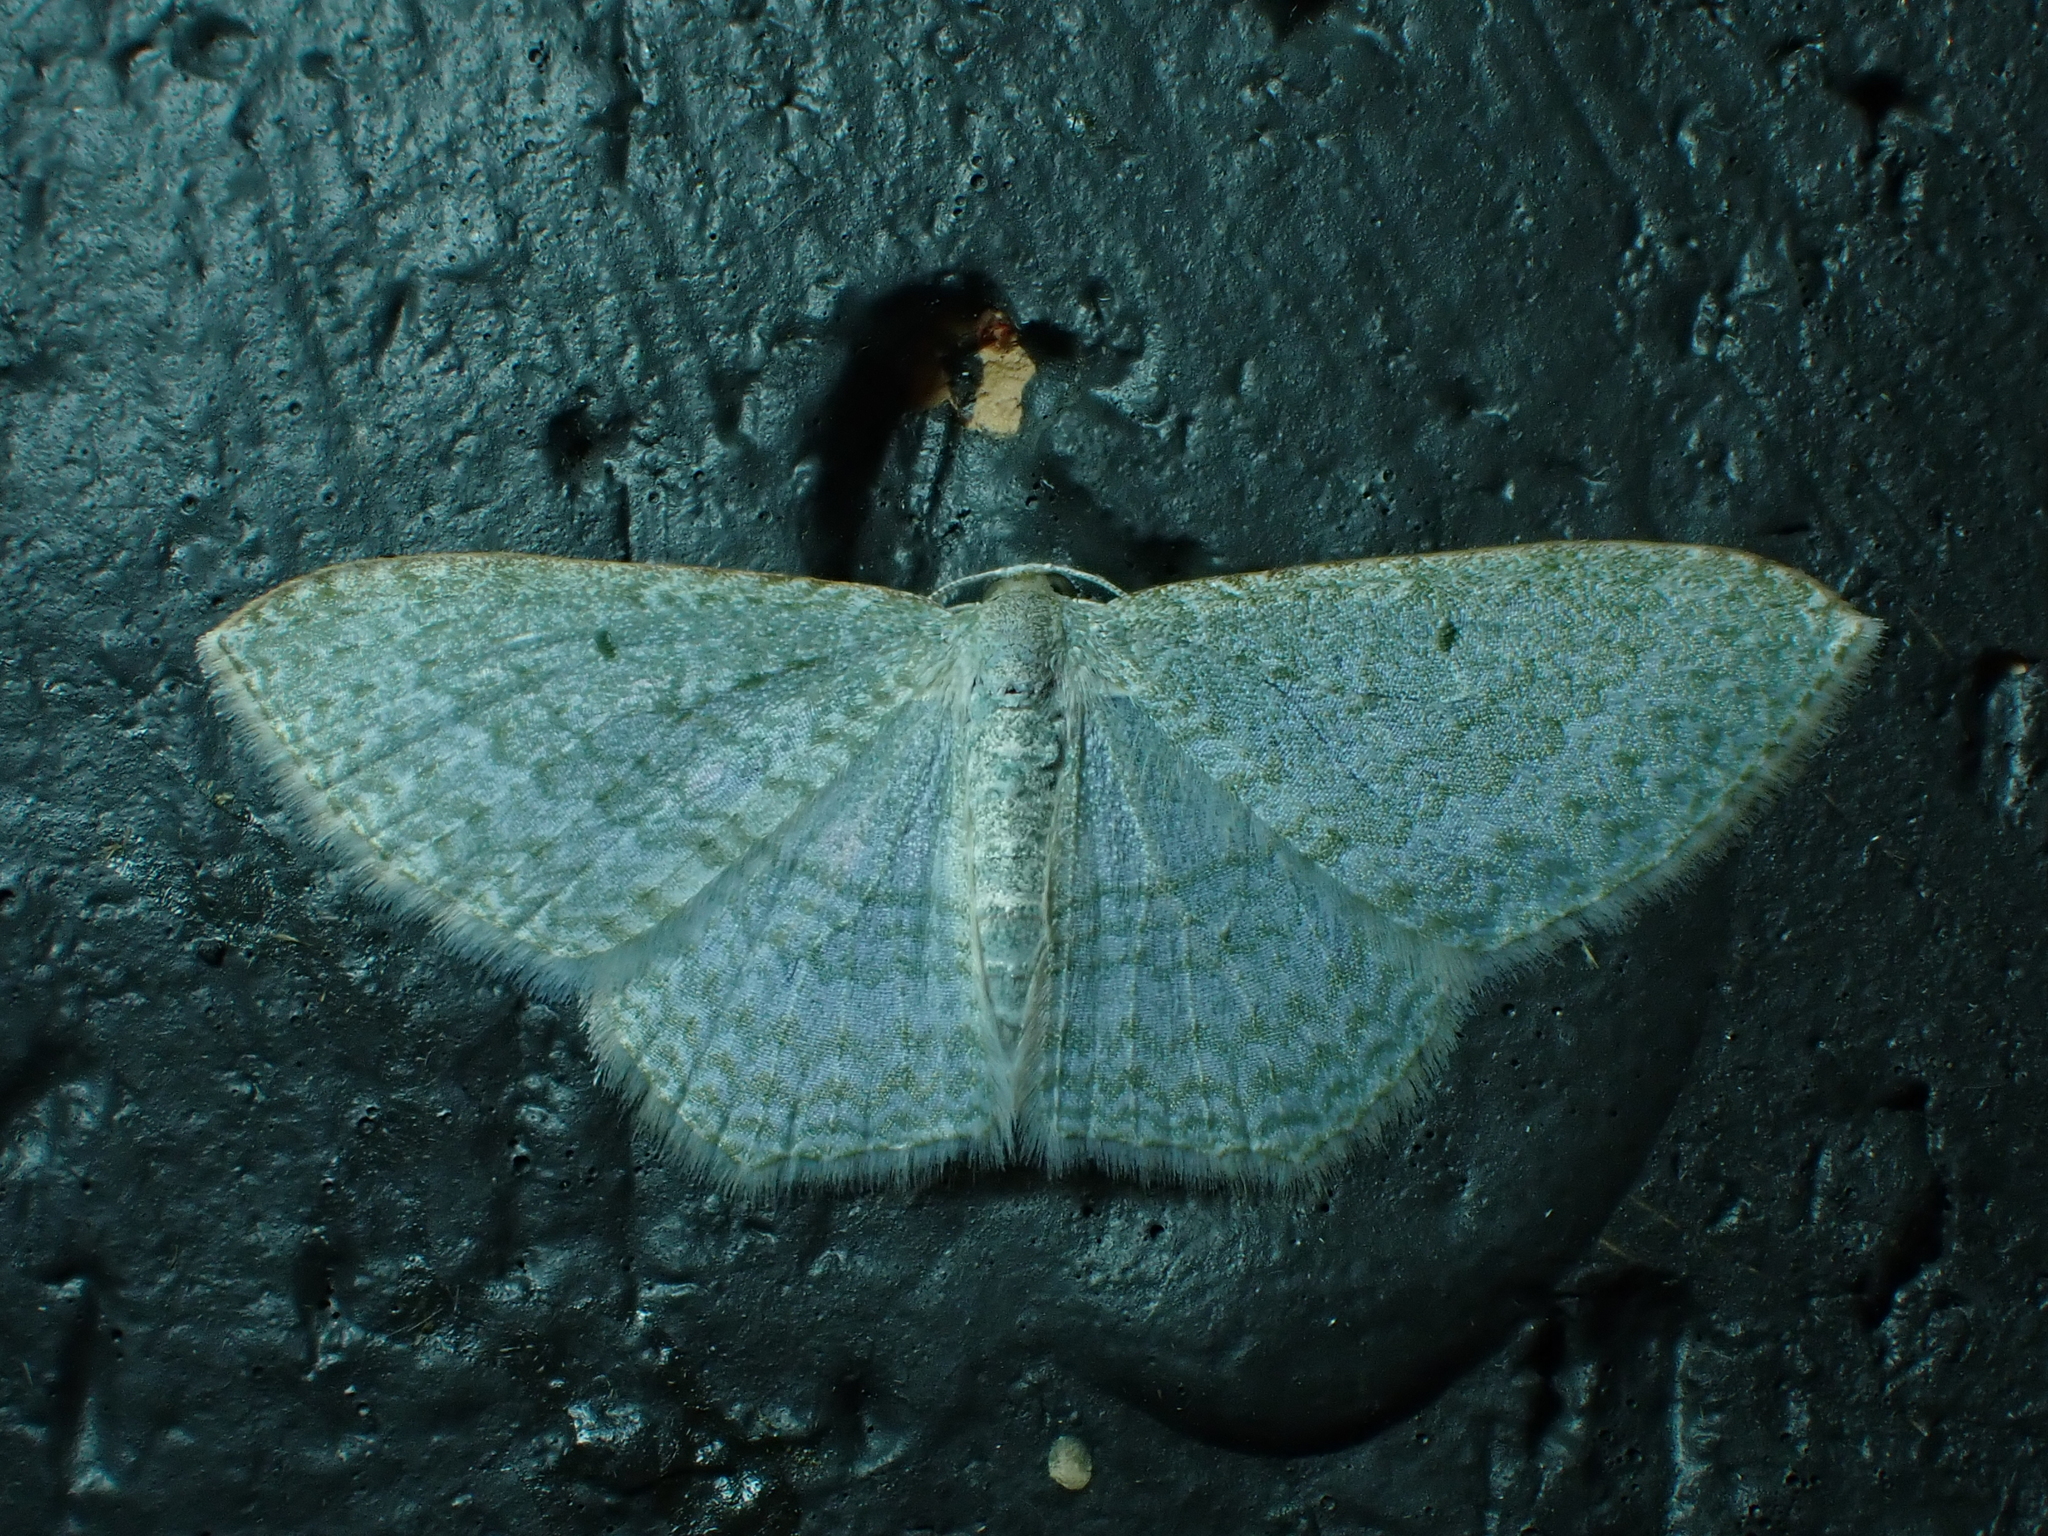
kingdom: Animalia
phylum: Arthropoda
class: Insecta
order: Lepidoptera
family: Geometridae
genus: Poecilasthena
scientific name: Poecilasthena pulchraria
